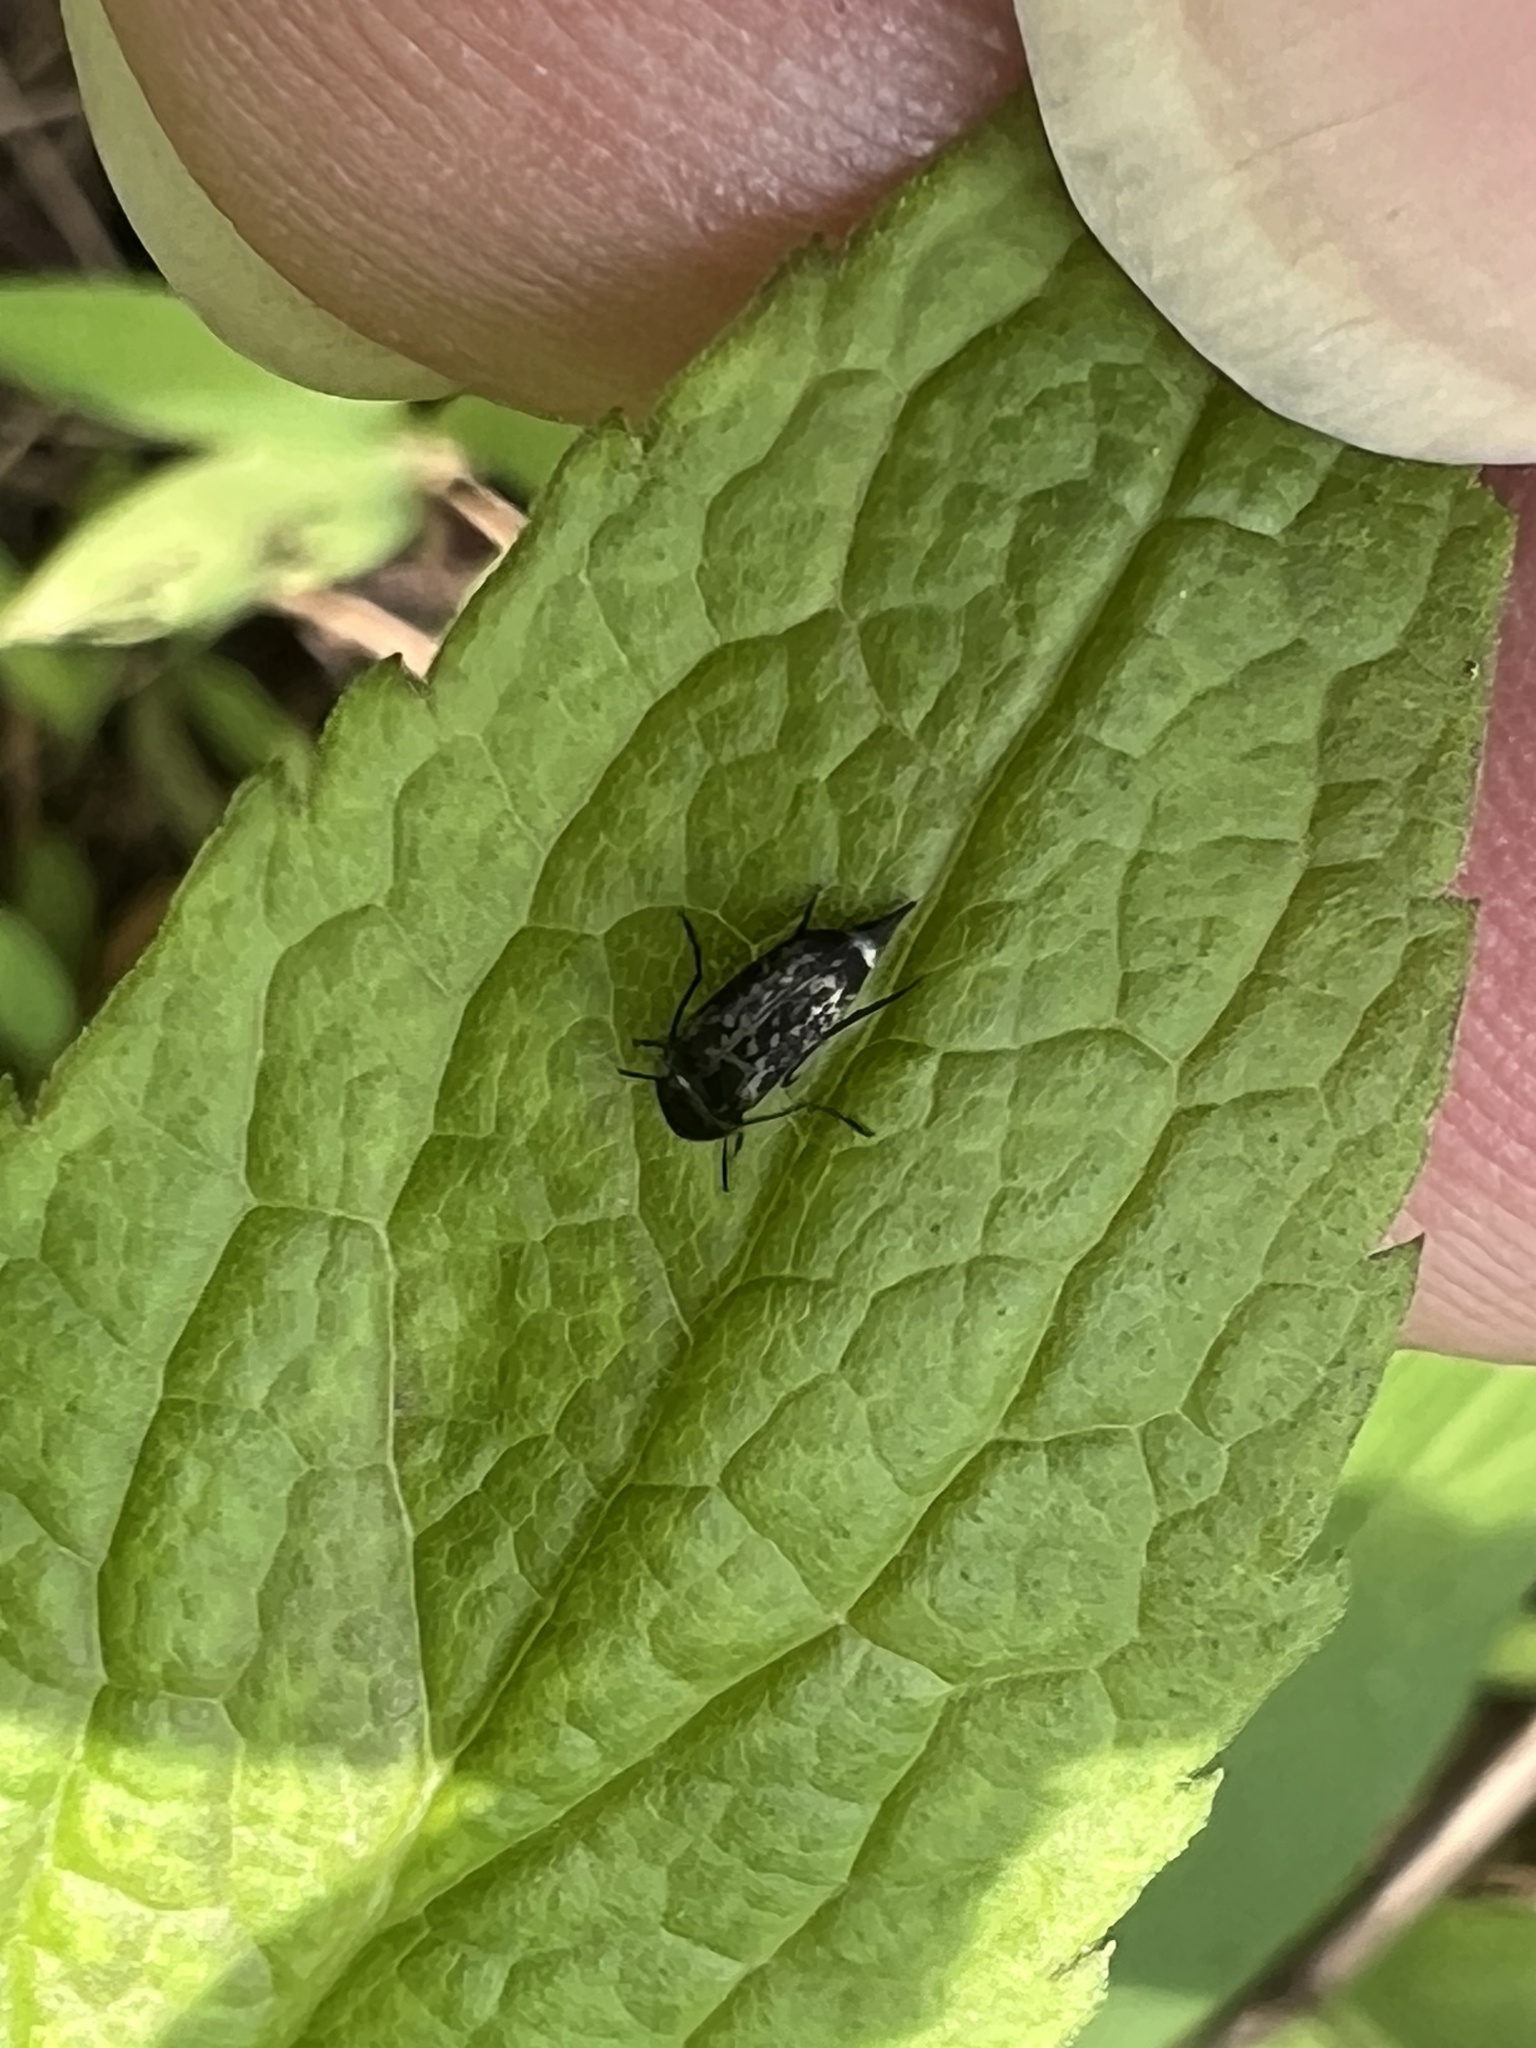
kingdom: Animalia
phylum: Arthropoda
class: Insecta
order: Coleoptera
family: Mordellidae
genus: Mordella
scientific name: Mordella marginata
